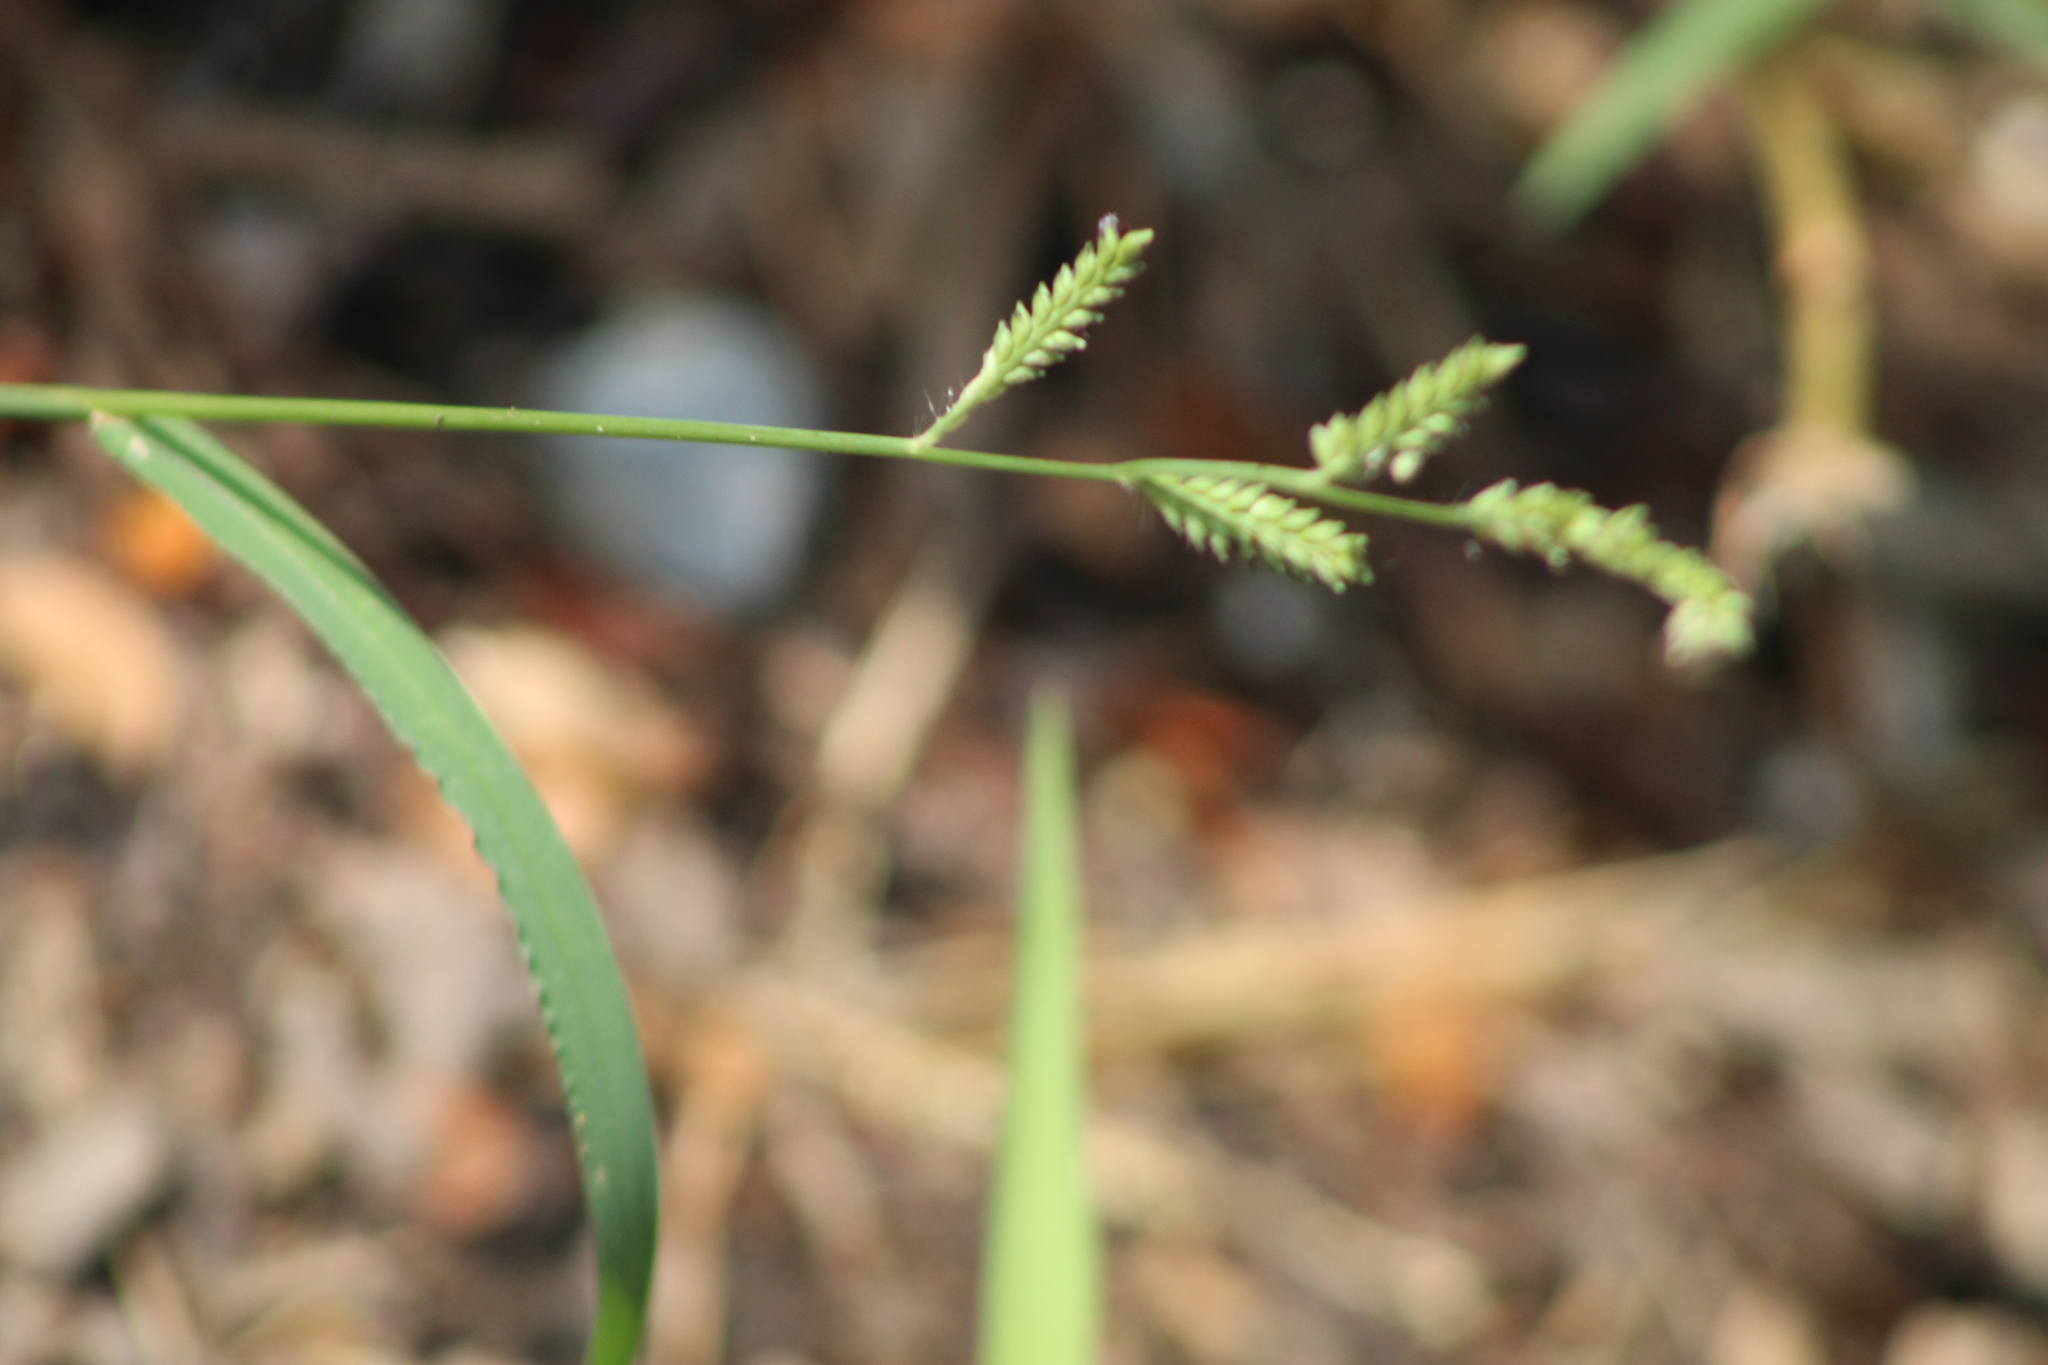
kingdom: Plantae
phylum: Tracheophyta
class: Liliopsida
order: Poales
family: Poaceae
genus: Echinochloa
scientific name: Echinochloa crus-galli
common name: Cockspur
